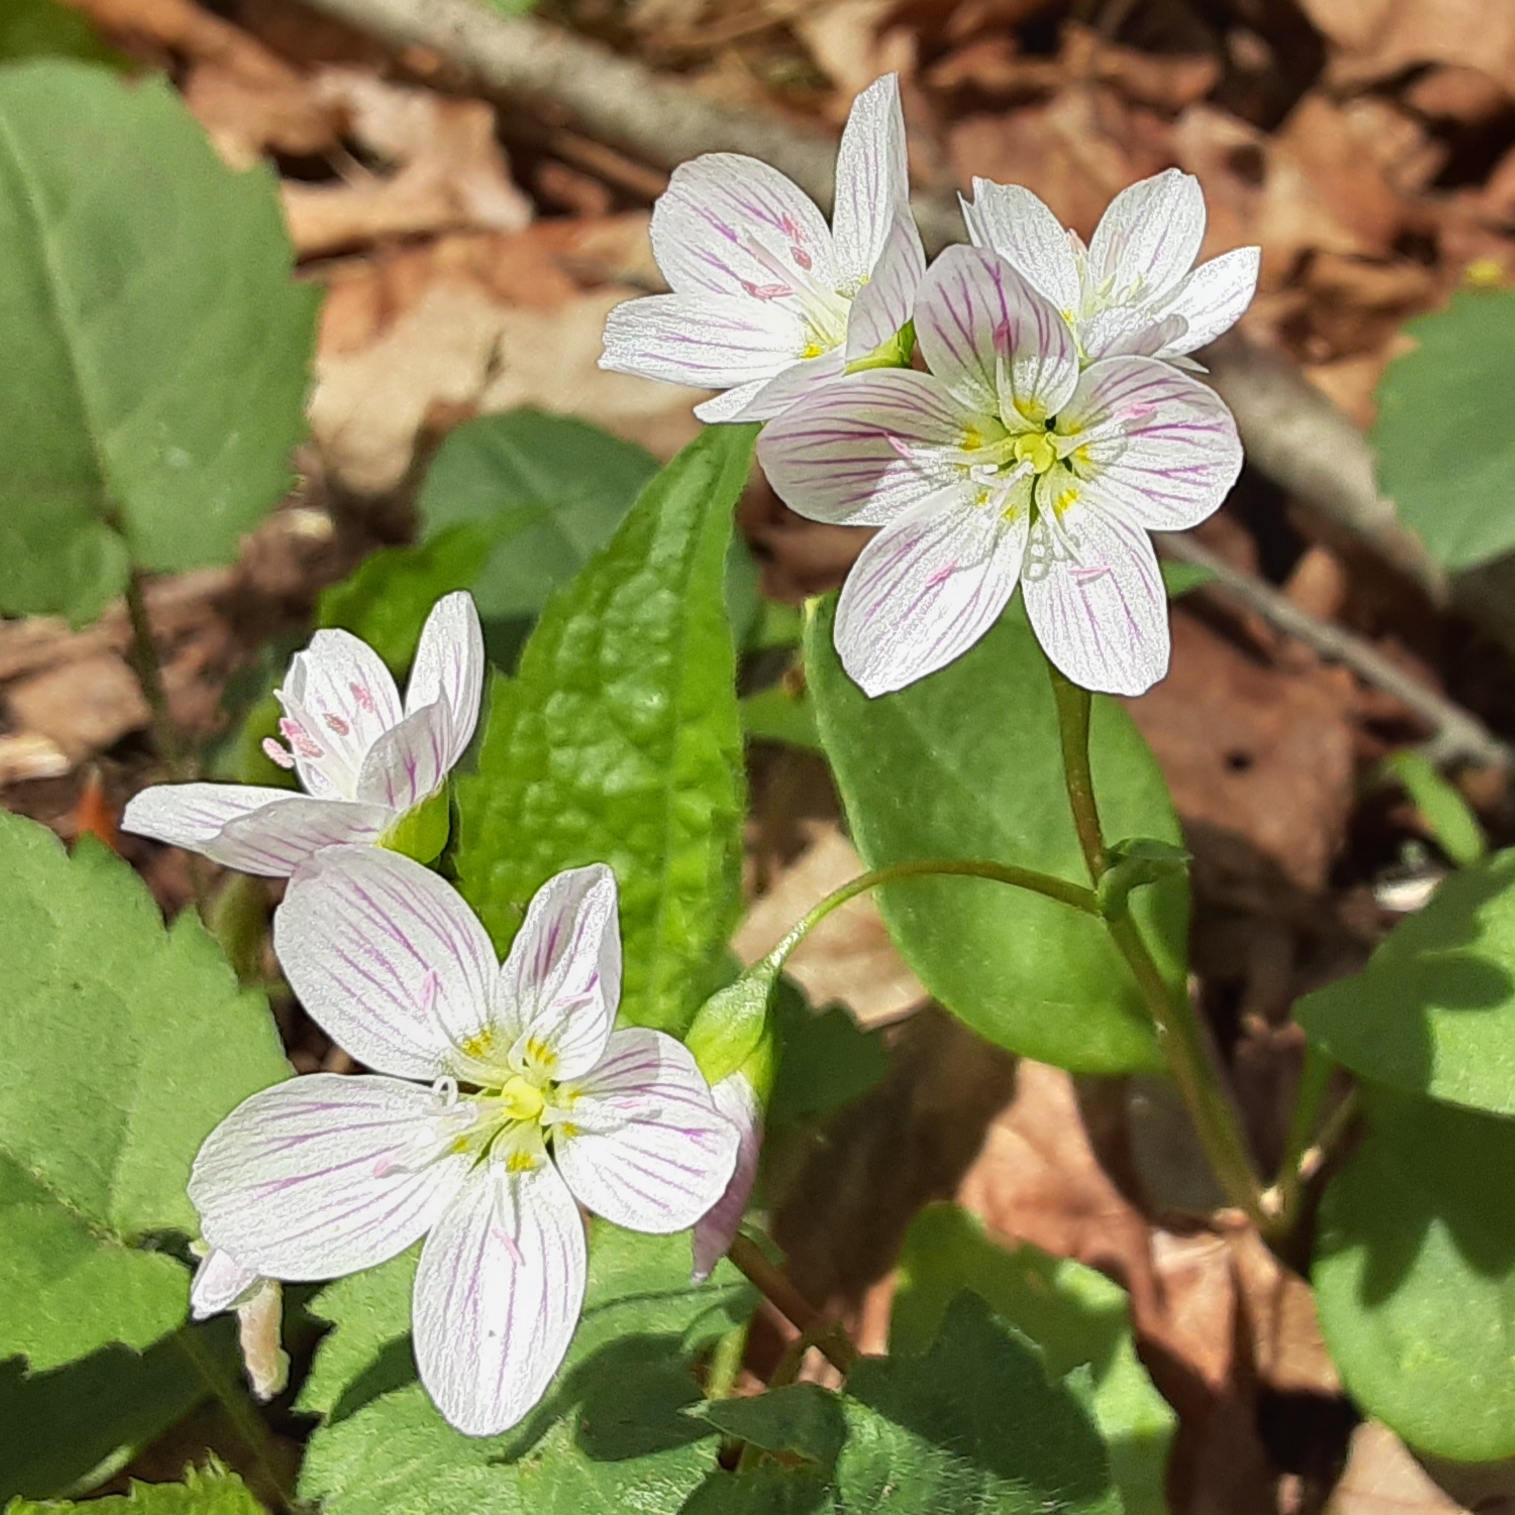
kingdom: Plantae
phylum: Tracheophyta
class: Magnoliopsida
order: Caryophyllales
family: Montiaceae
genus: Claytonia
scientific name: Claytonia caroliniana
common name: Carolina spring beauty
